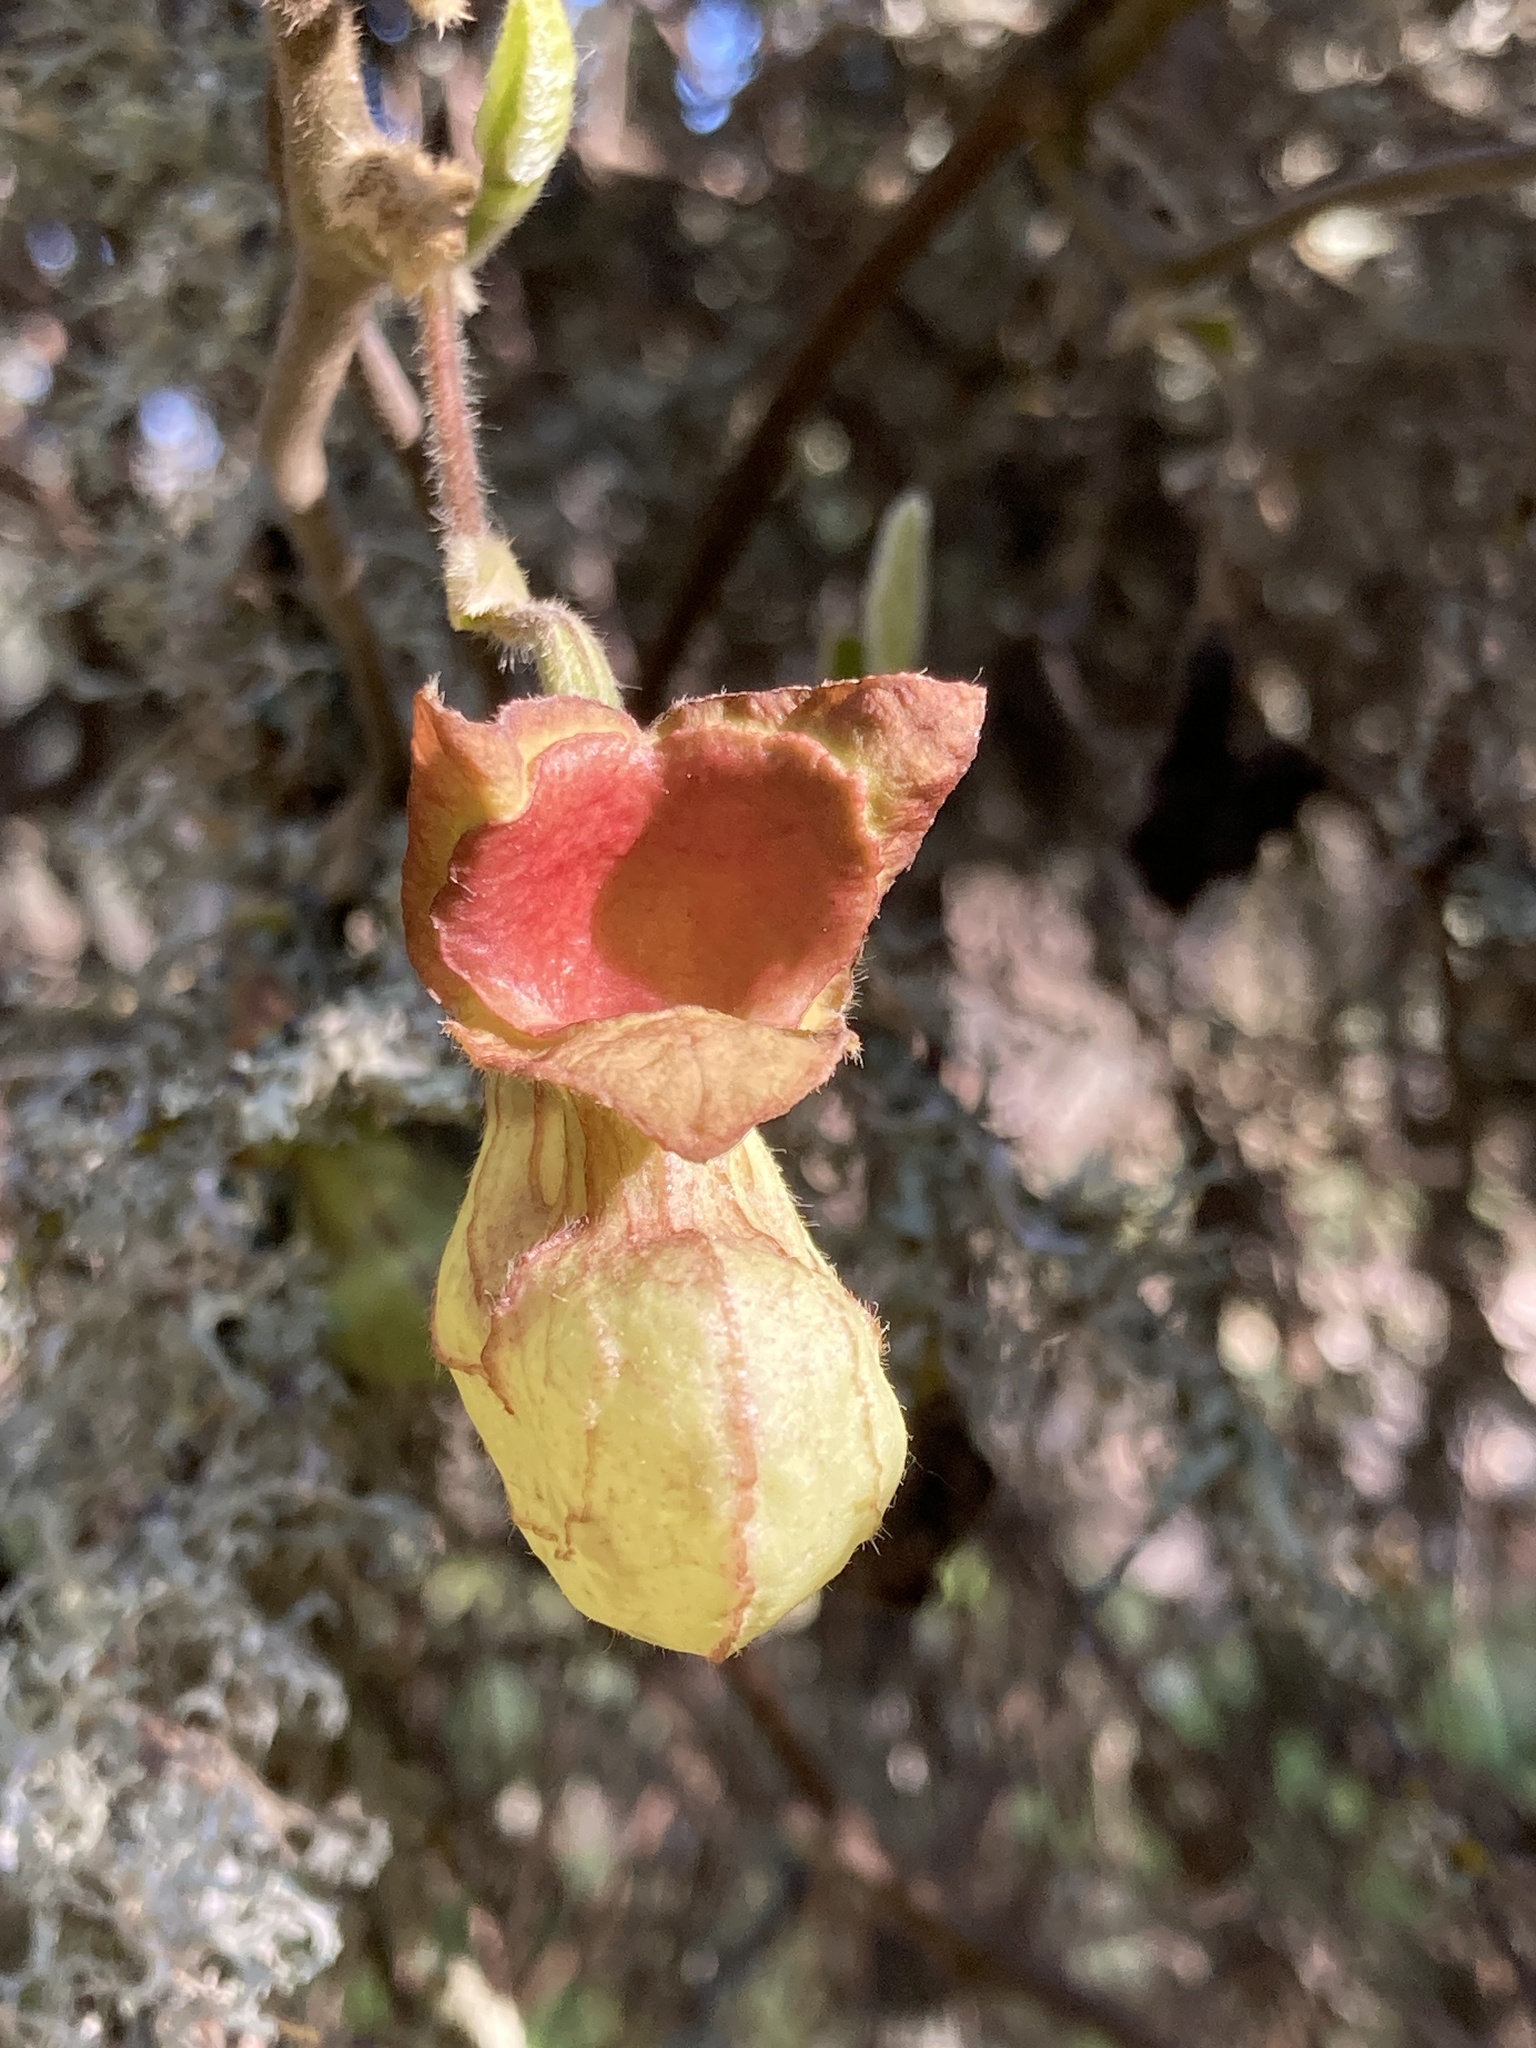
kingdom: Plantae
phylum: Tracheophyta
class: Magnoliopsida
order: Piperales
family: Aristolochiaceae
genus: Isotrema
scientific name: Isotrema californicum
